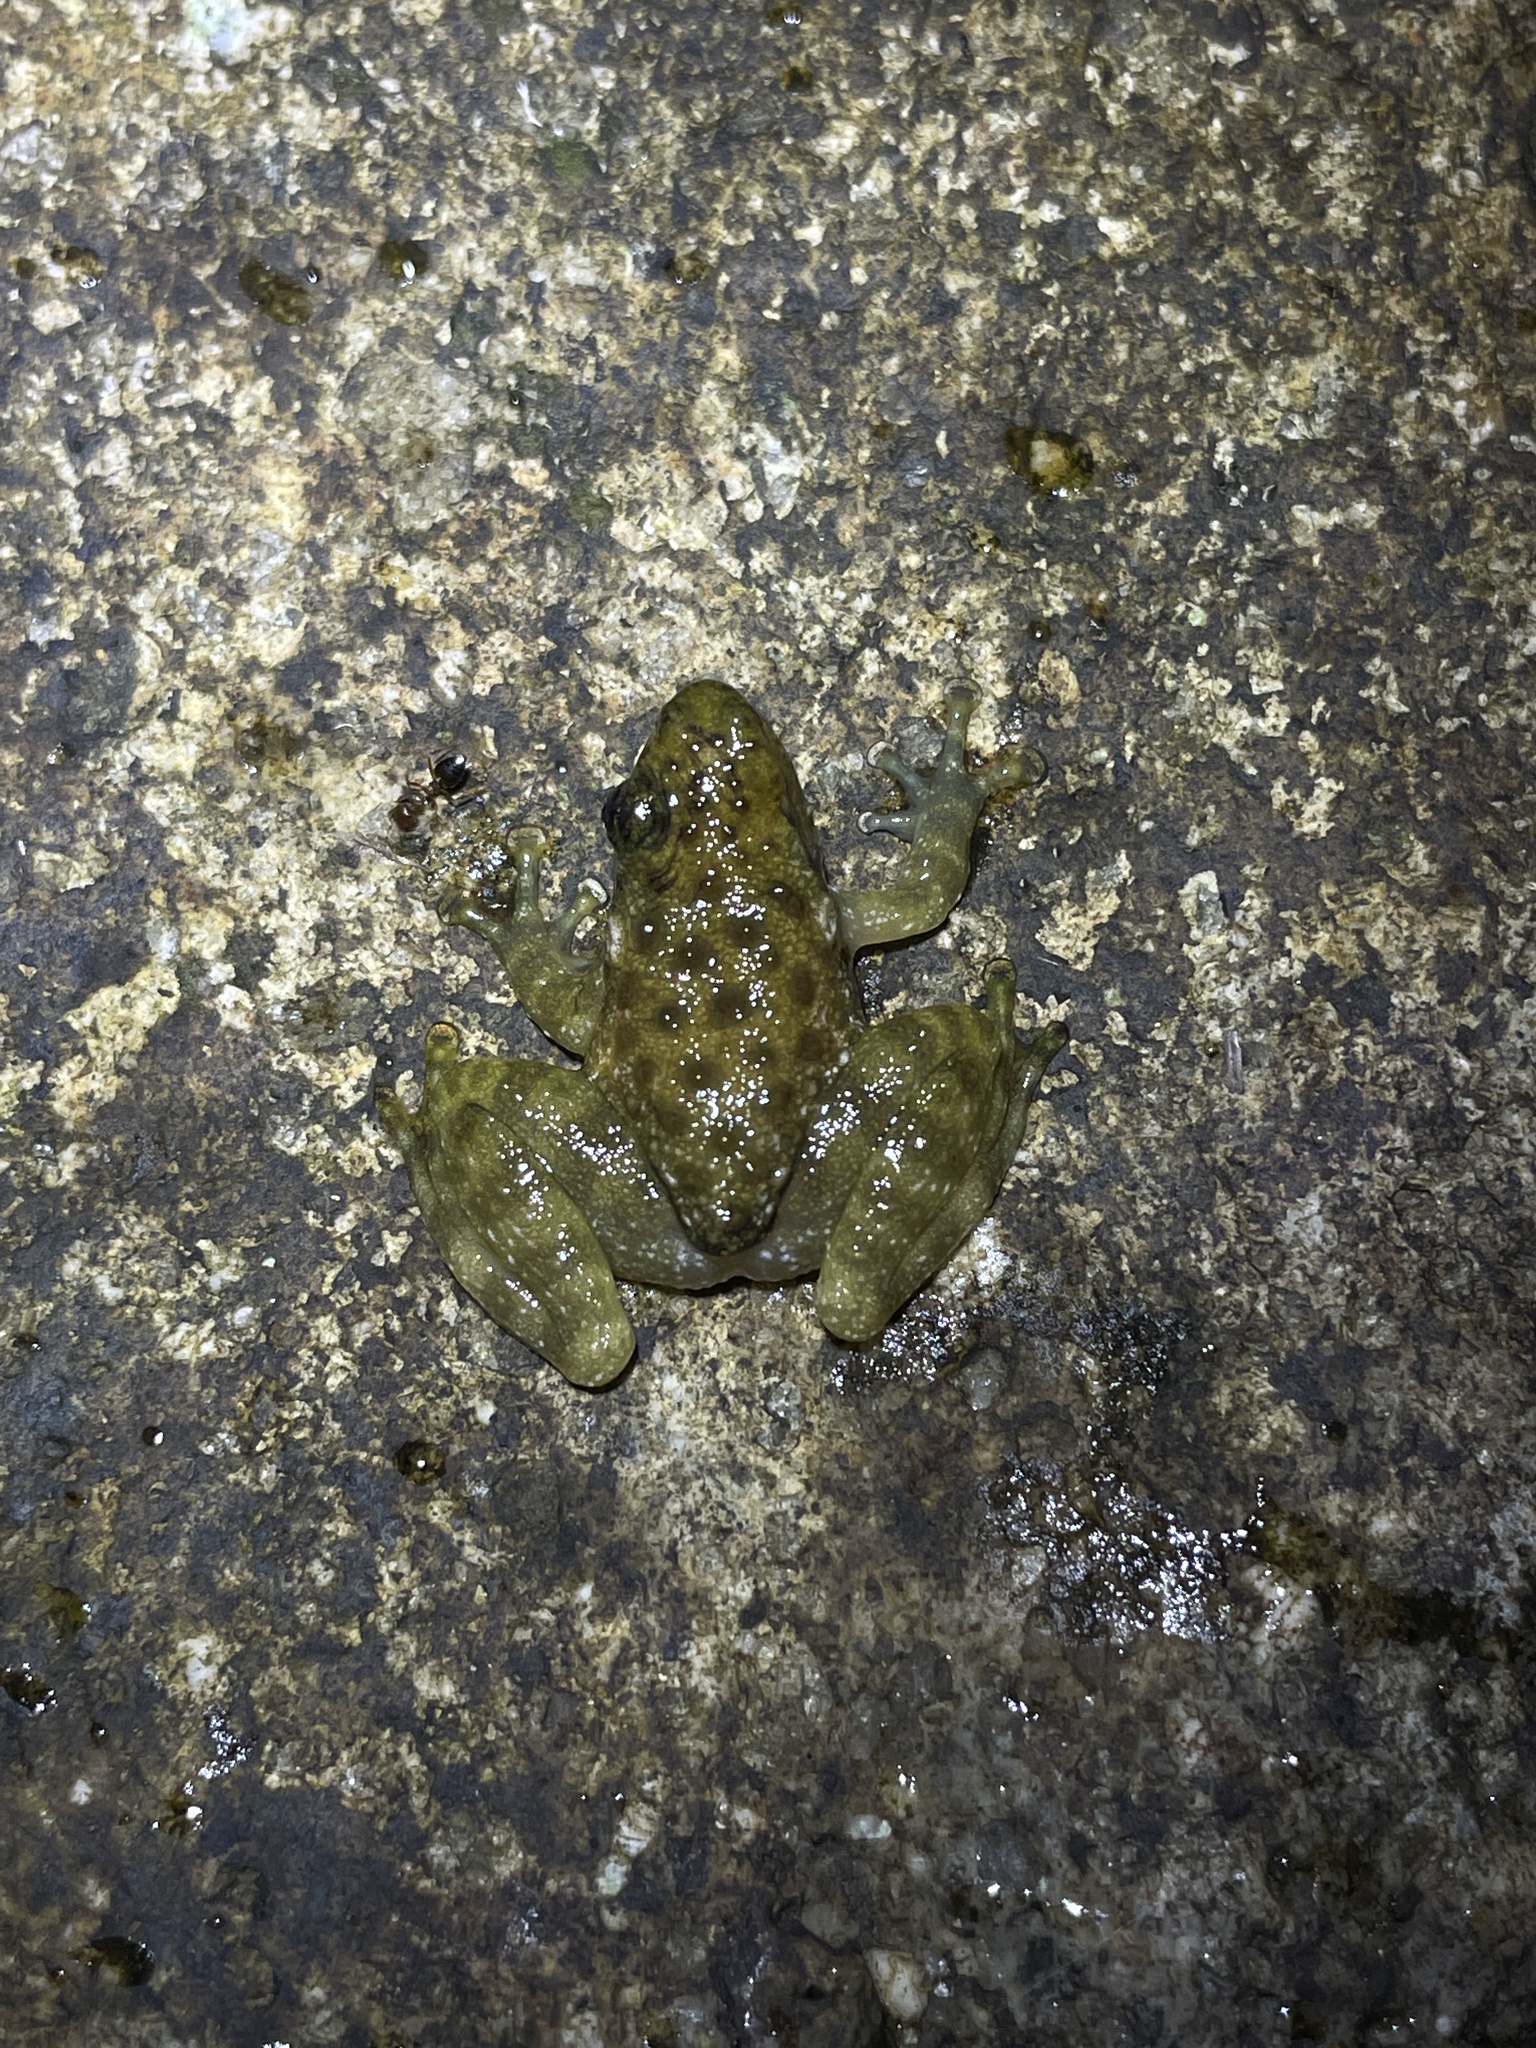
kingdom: Animalia
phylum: Chordata
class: Amphibia
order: Anura
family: Ranidae
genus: Amolops
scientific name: Amolops hongkongensis
